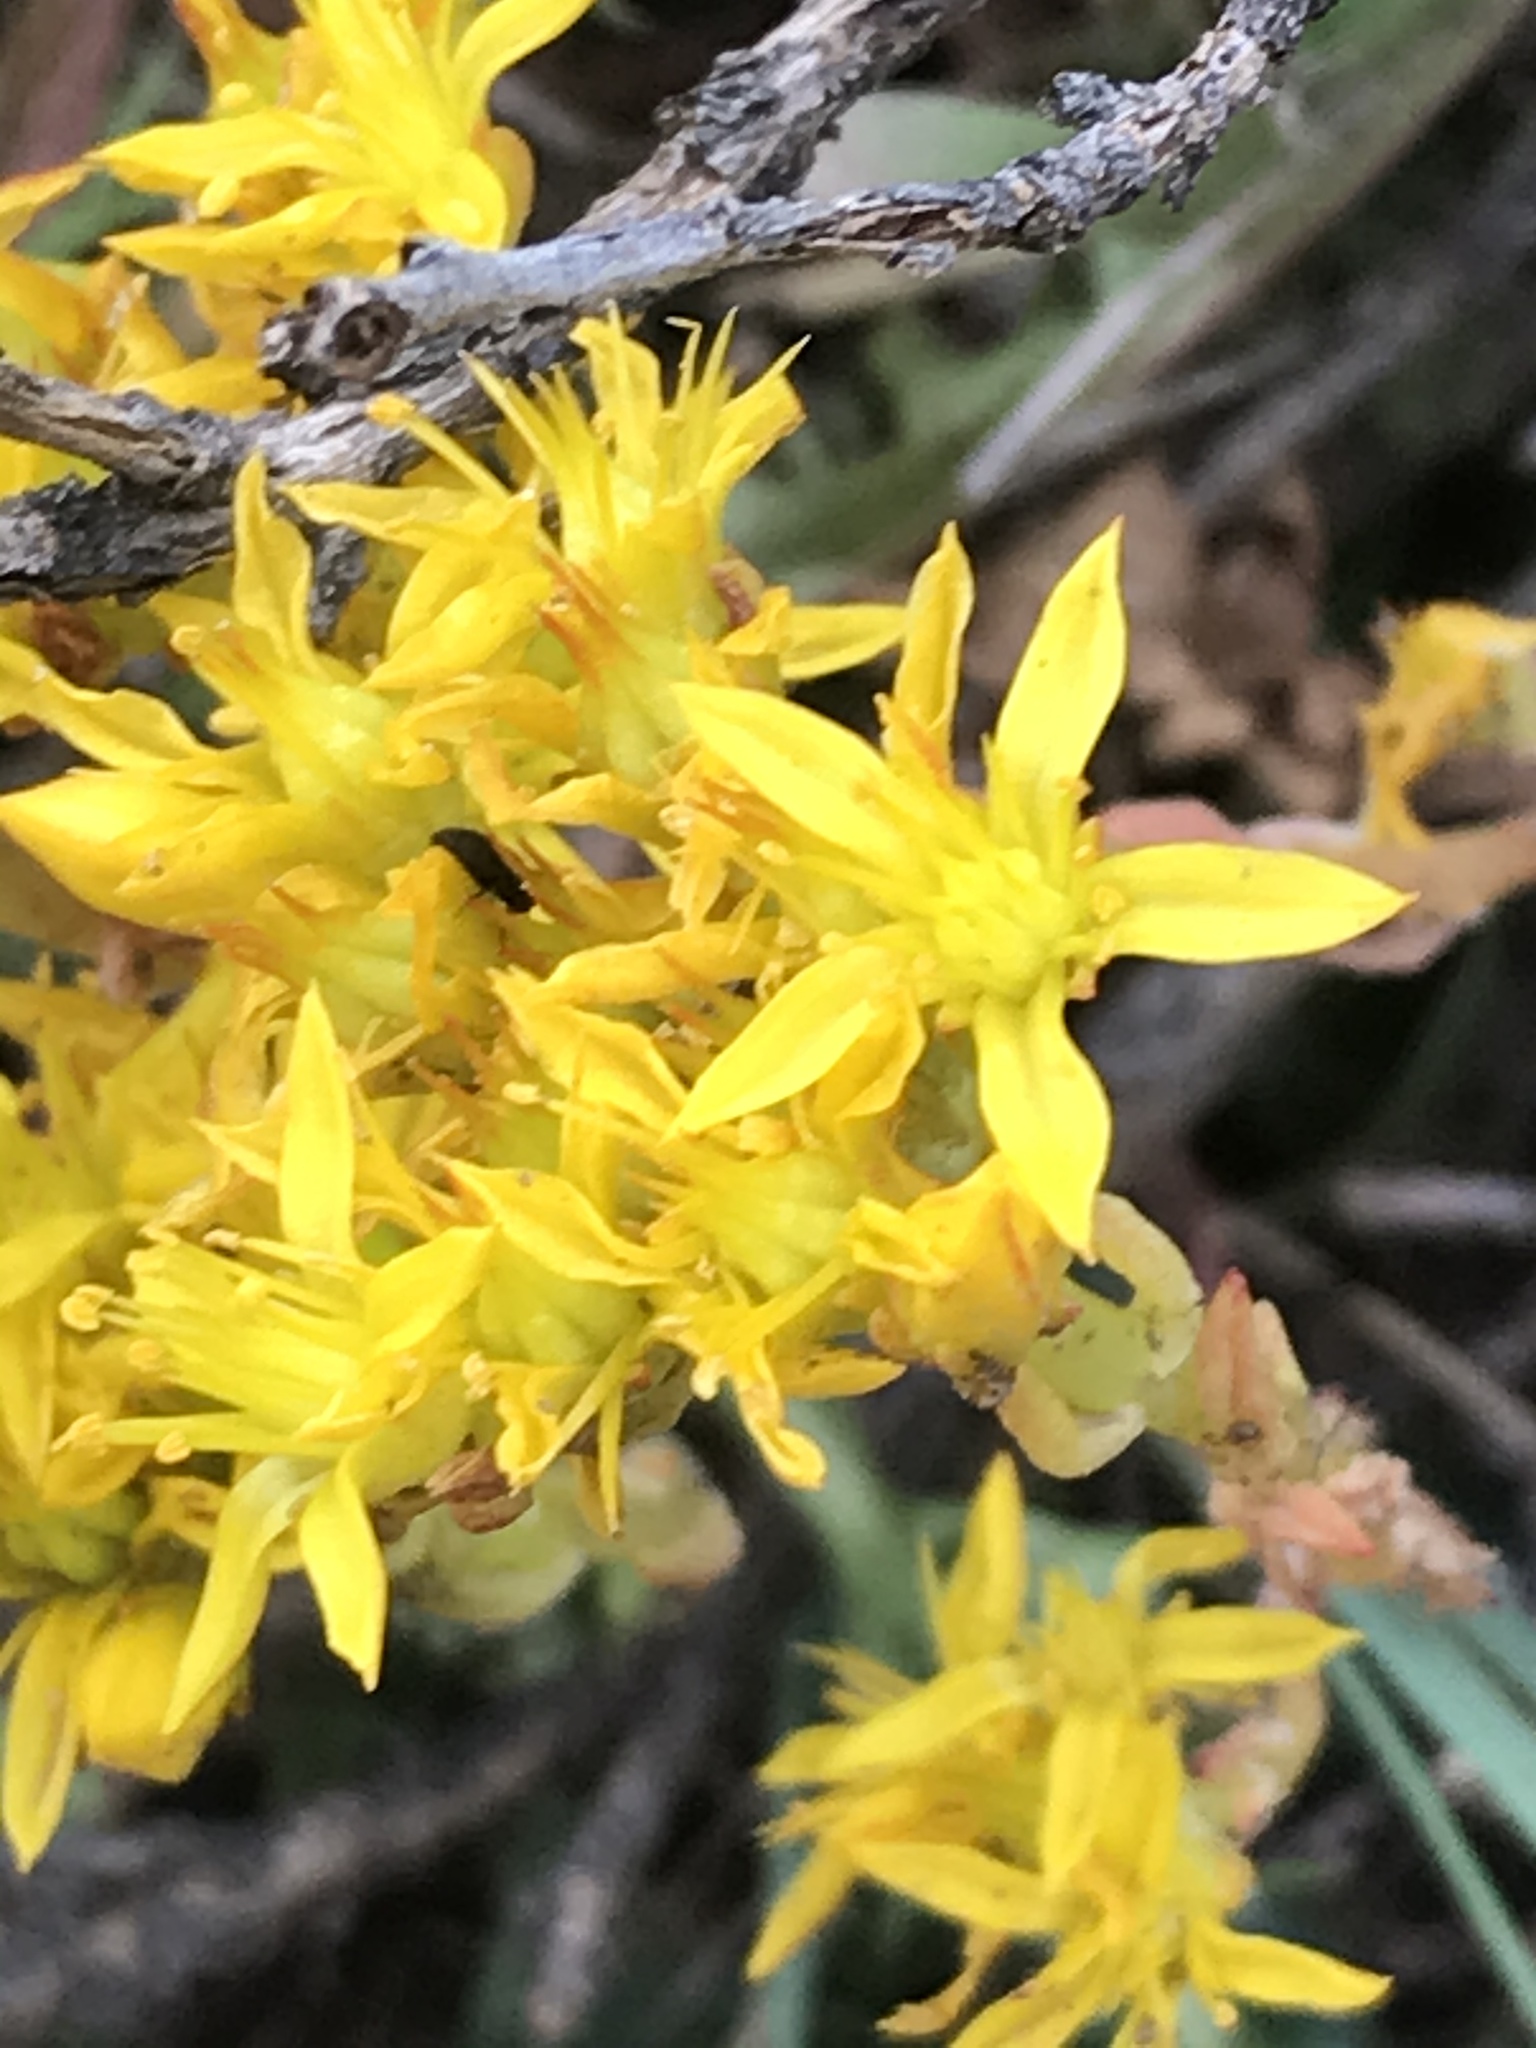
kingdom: Plantae
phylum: Tracheophyta
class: Magnoliopsida
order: Saxifragales
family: Crassulaceae
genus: Sedum
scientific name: Sedum lanceolatum
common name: Common stonecrop
